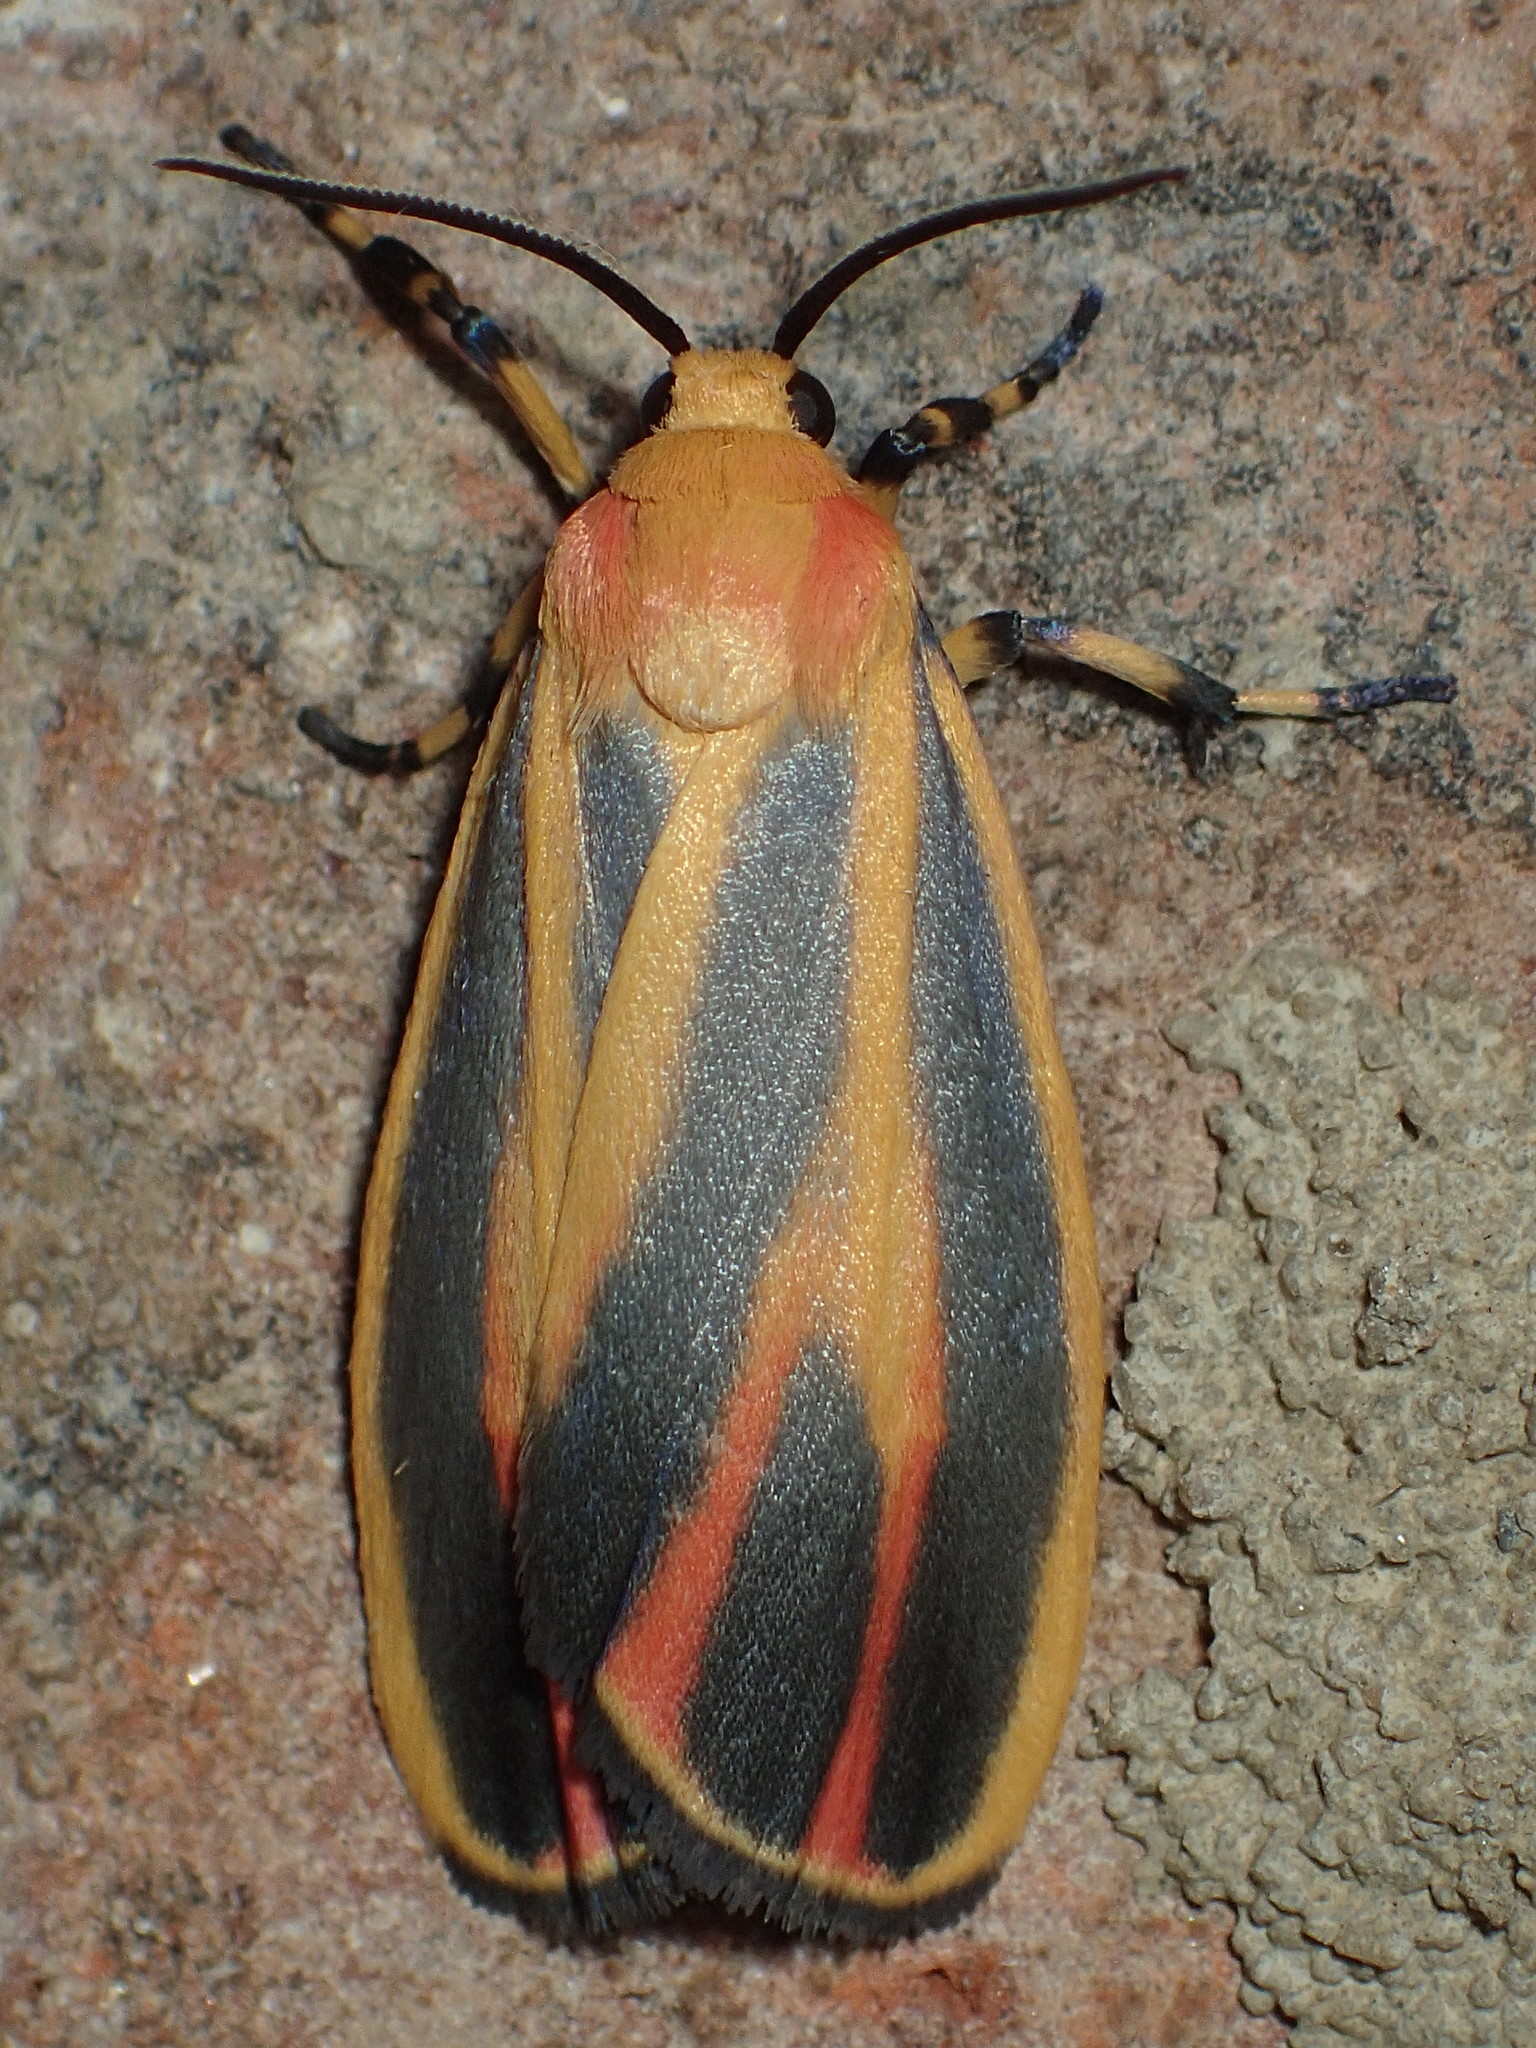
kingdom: Animalia
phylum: Arthropoda
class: Insecta
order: Lepidoptera
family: Erebidae
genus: Hypoprepia
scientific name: Hypoprepia fucosa
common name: Painted lichen moth
